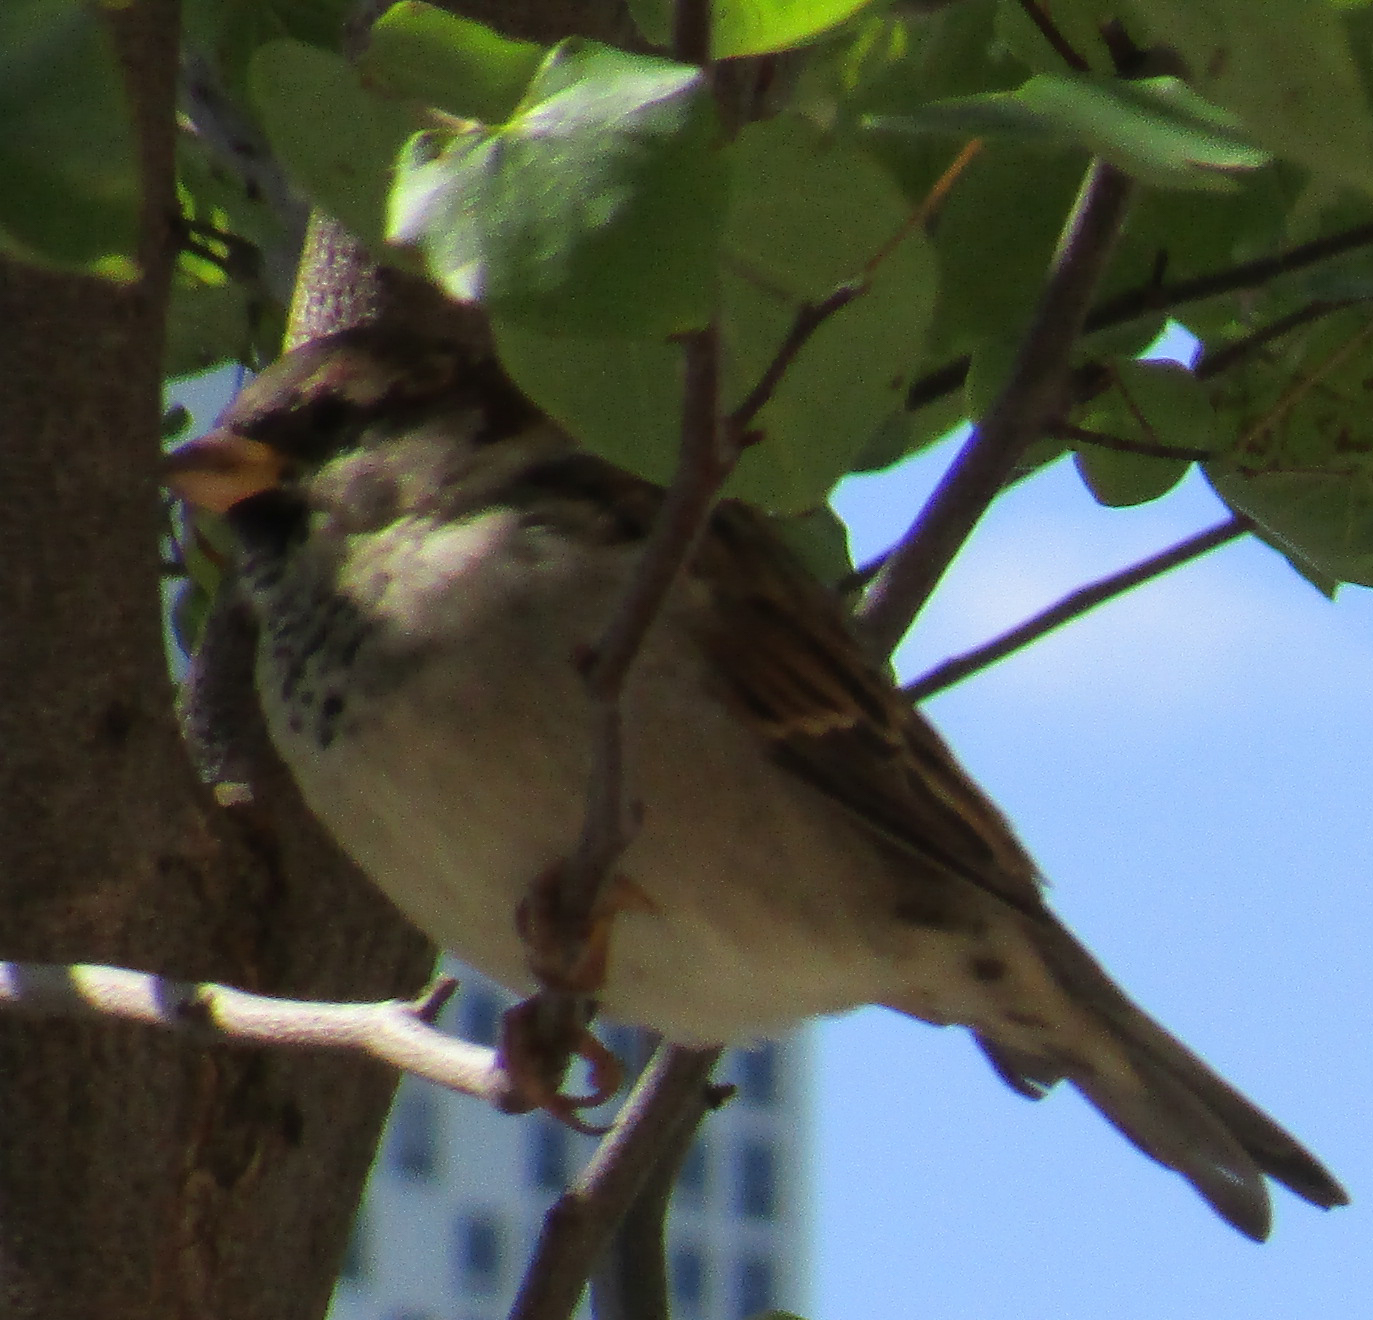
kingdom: Animalia
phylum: Chordata
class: Aves
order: Passeriformes
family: Passeridae
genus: Passer
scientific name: Passer domesticus
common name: House sparrow
